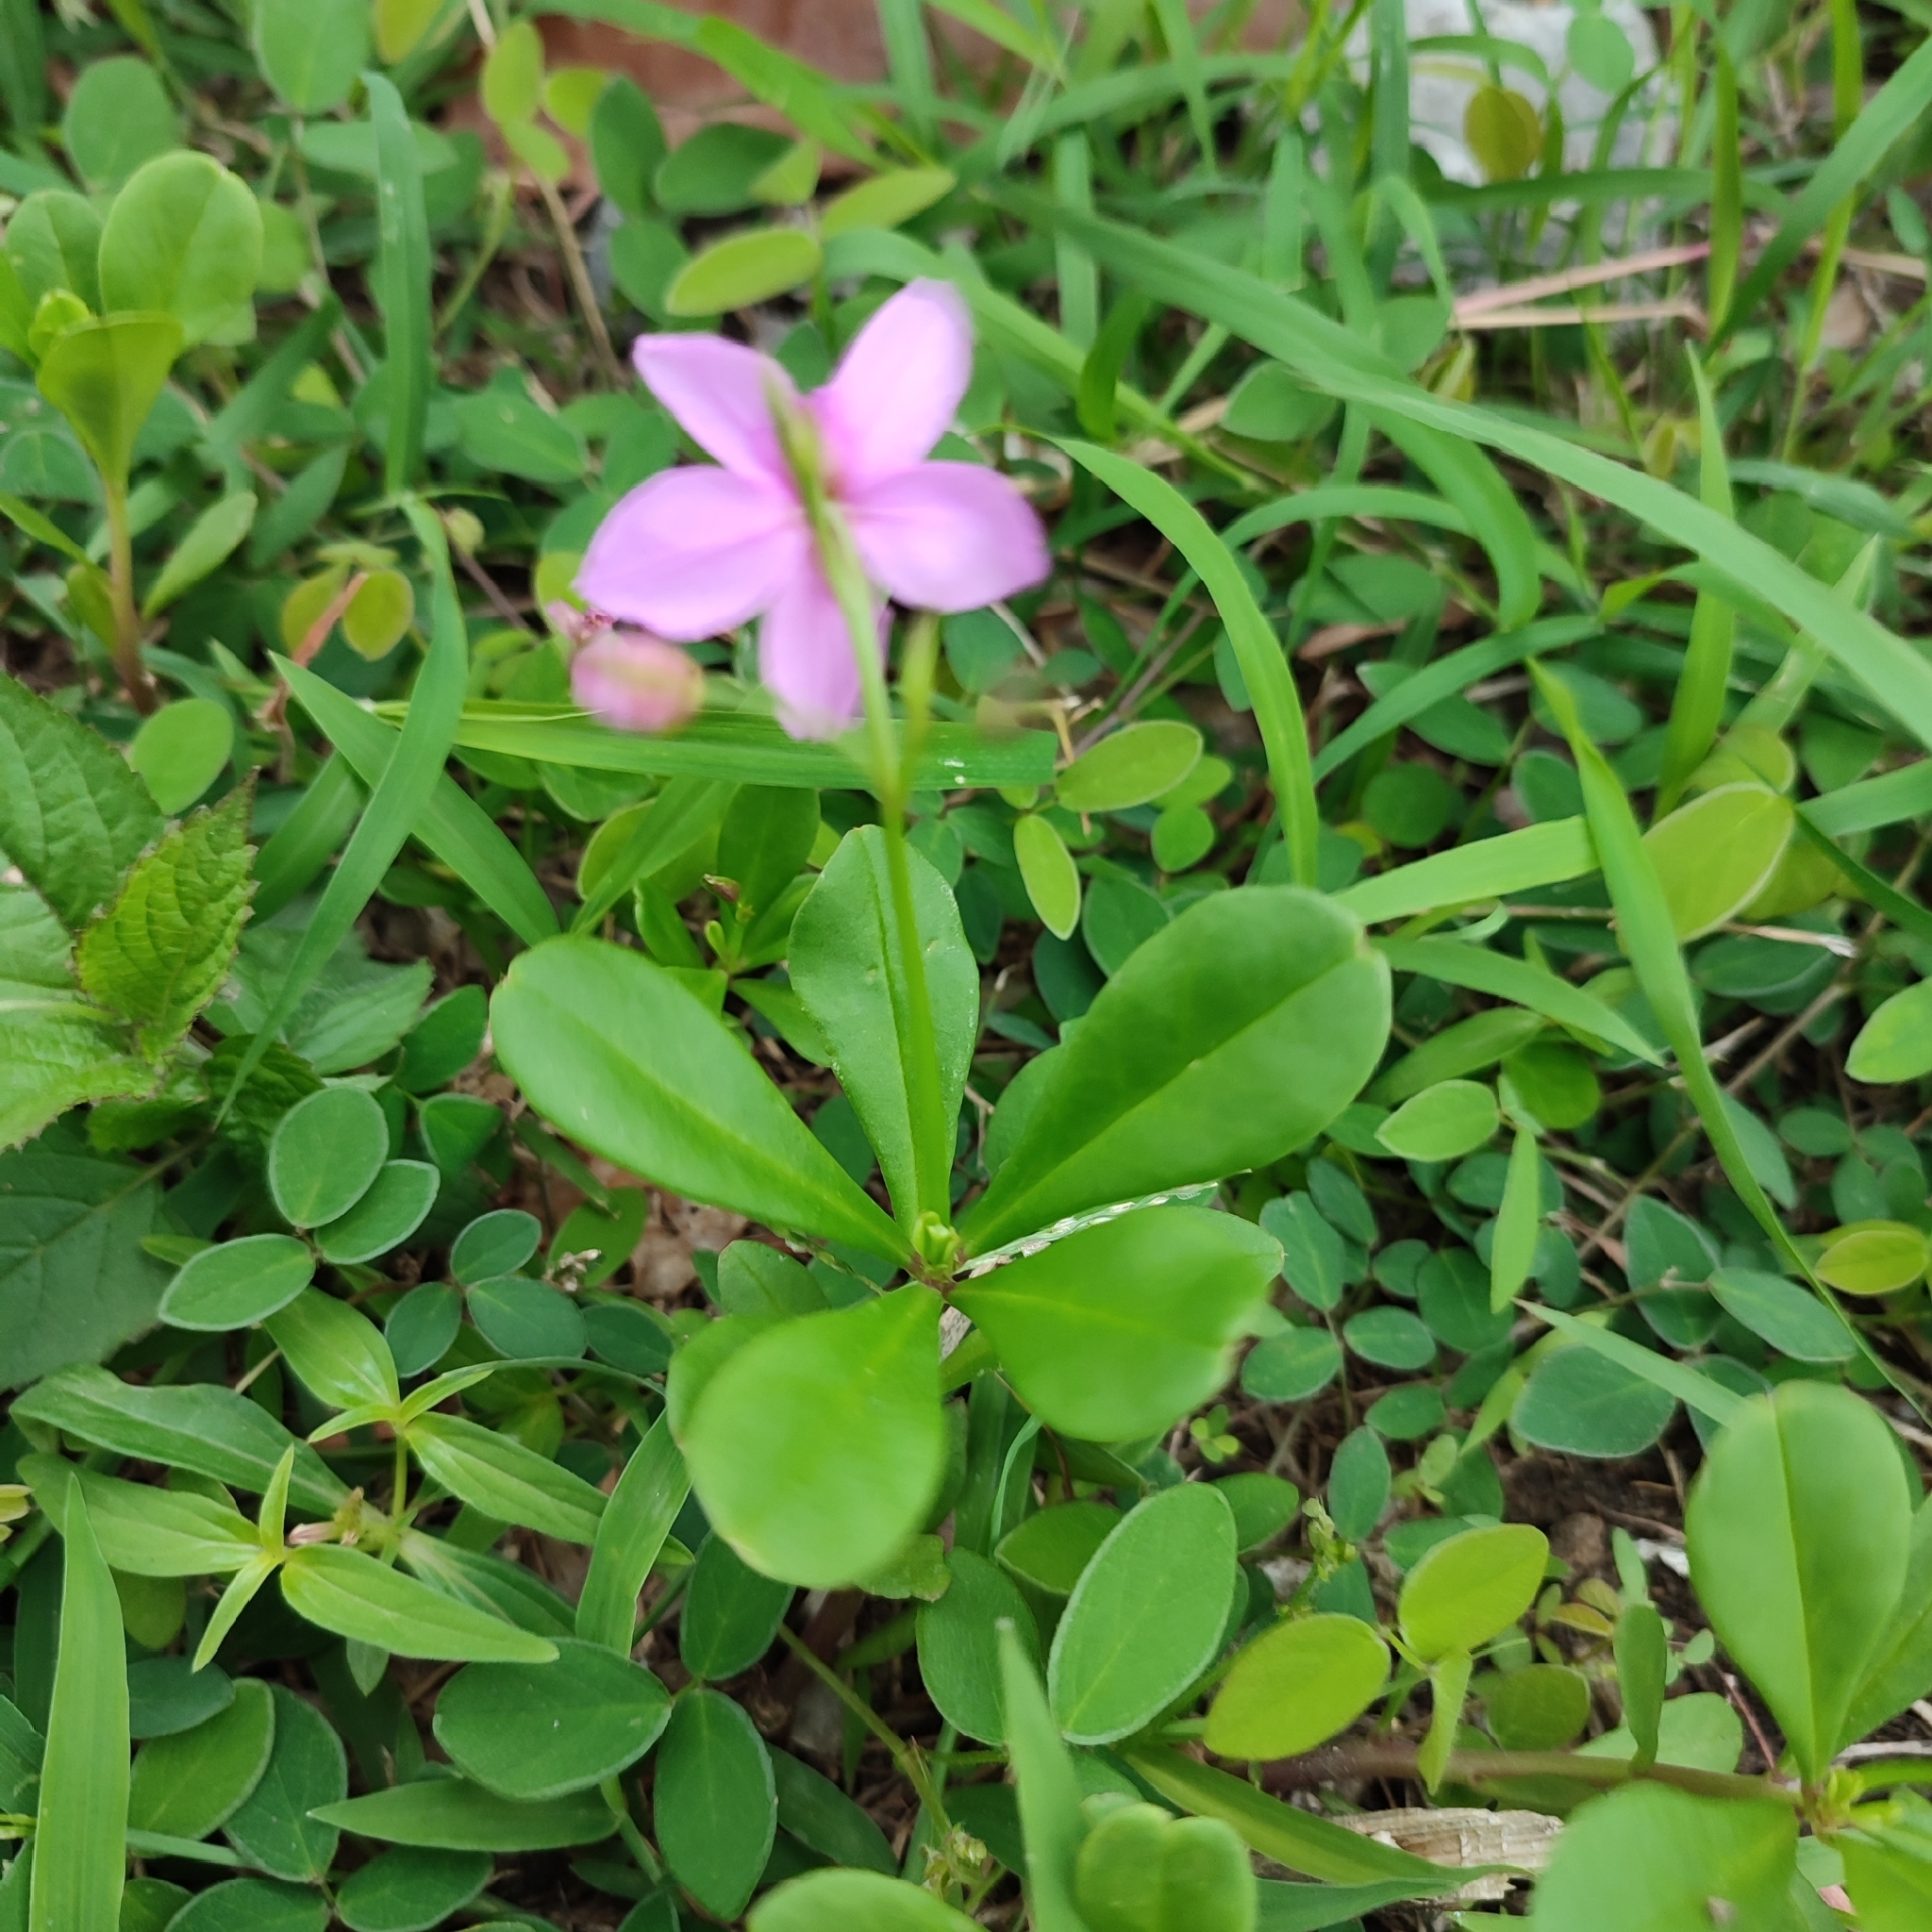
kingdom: Plantae
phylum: Tracheophyta
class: Magnoliopsida
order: Caryophyllales
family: Talinaceae
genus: Talinum
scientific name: Talinum fruticosum
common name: Verdolaga-francesa
